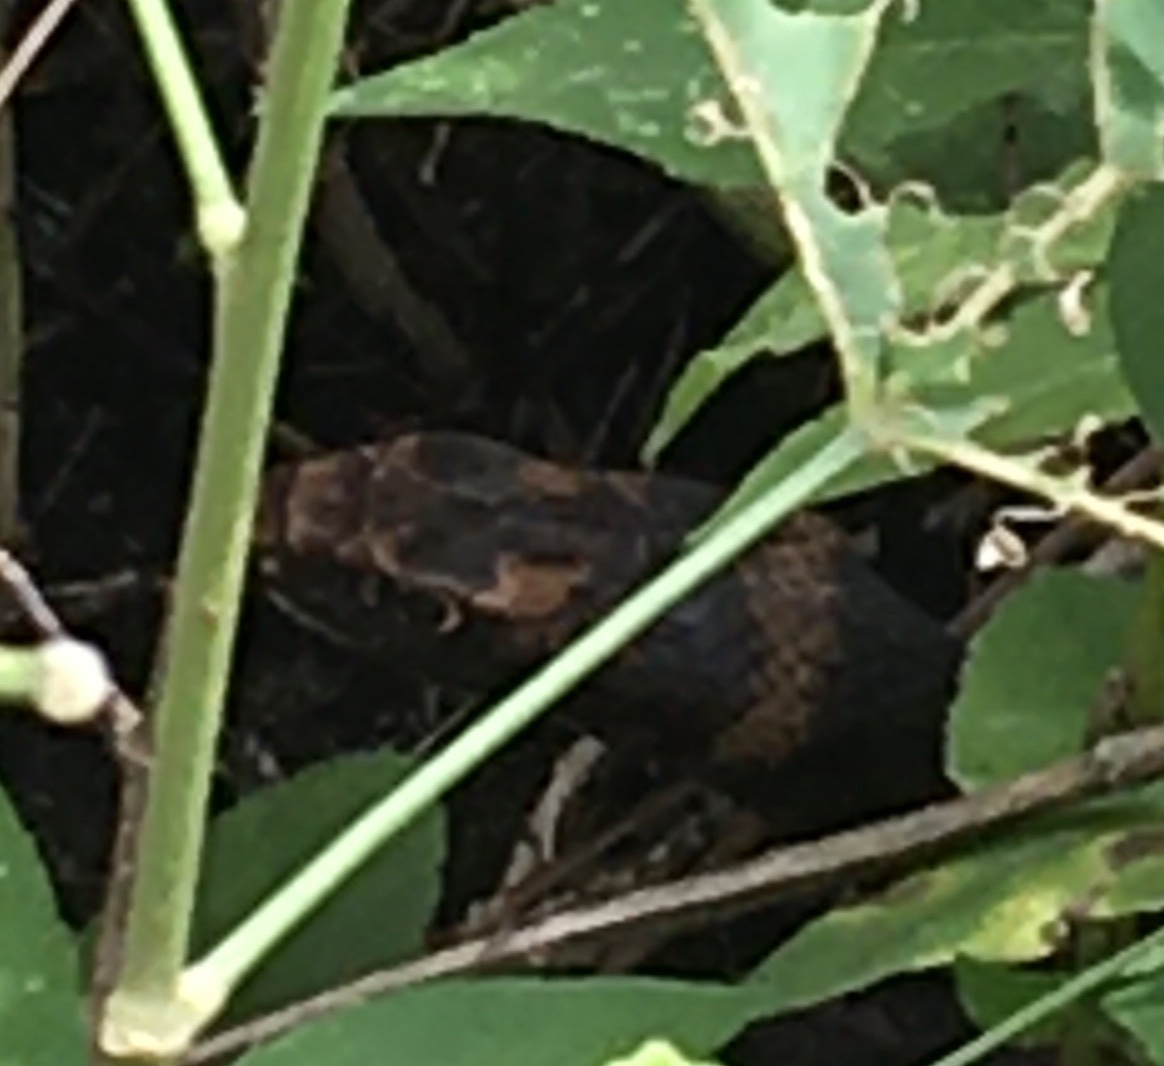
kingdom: Animalia
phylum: Chordata
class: Squamata
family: Colubridae
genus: Masticophis
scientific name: Masticophis flagellum
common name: Coachwhip
